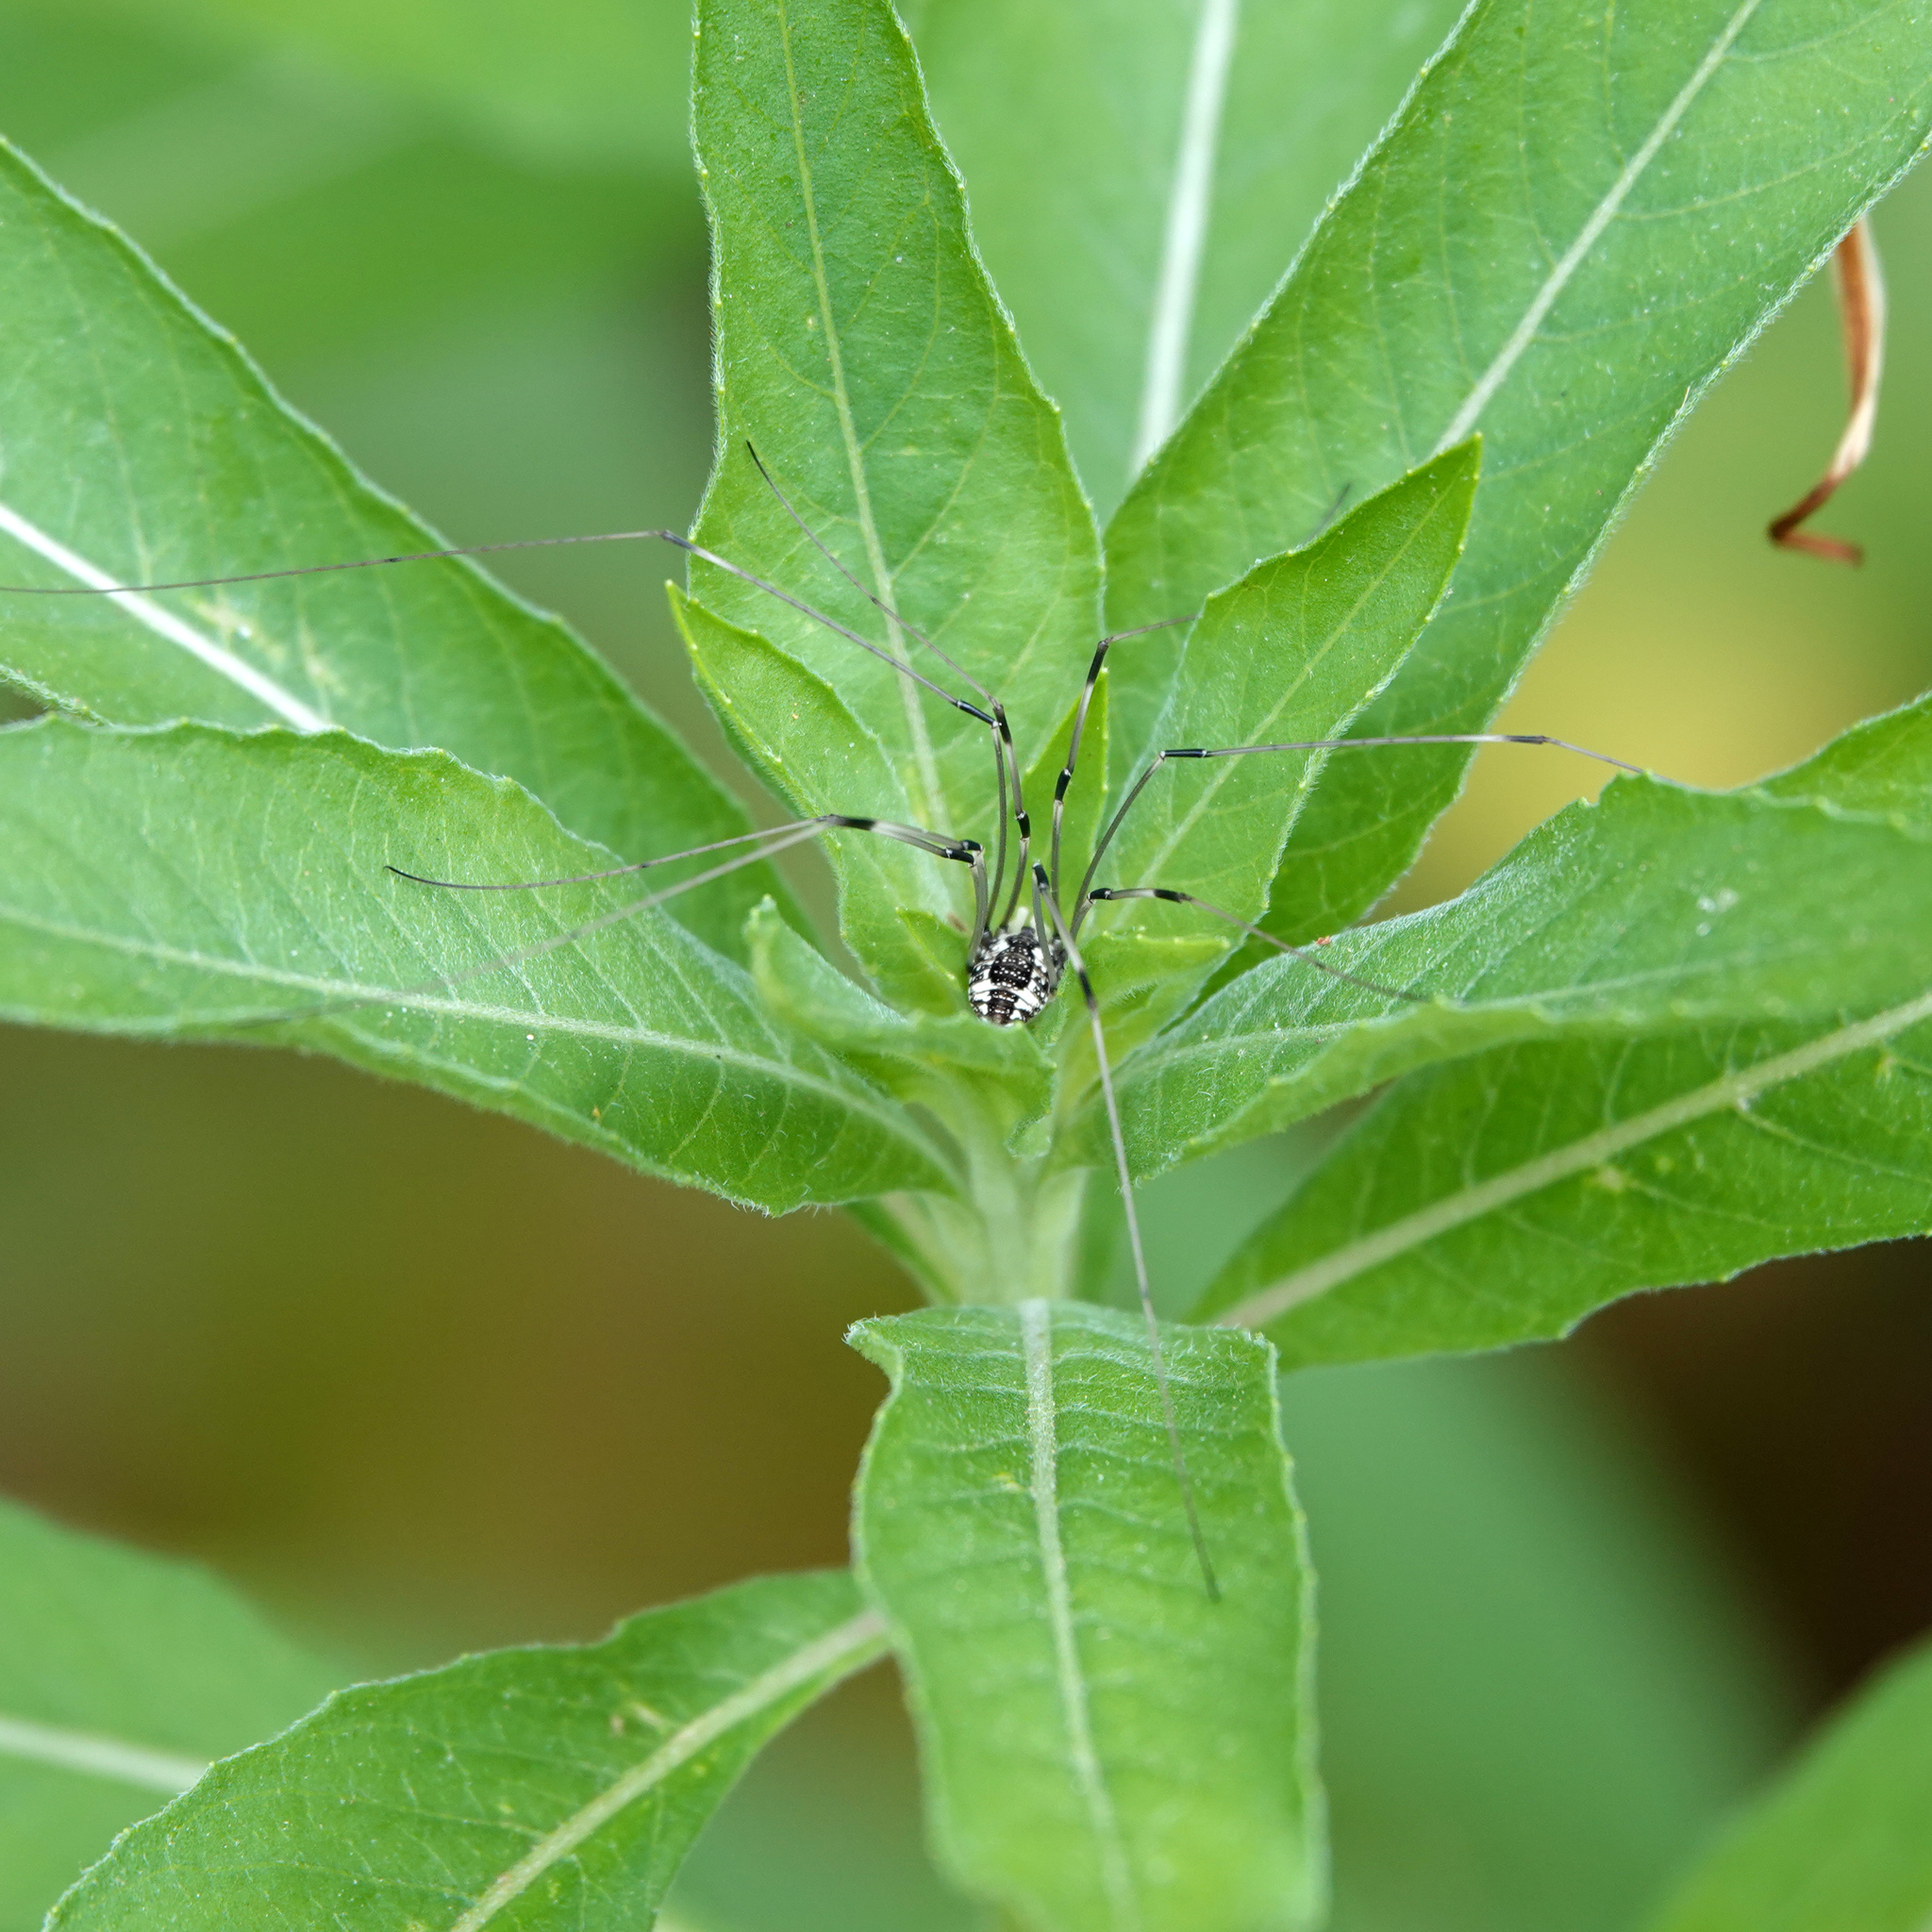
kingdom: Animalia
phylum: Arthropoda
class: Arachnida
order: Opiliones
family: Sclerosomatidae
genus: Leiobunum
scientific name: Leiobunum vittatum
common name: Eastern harvestman
